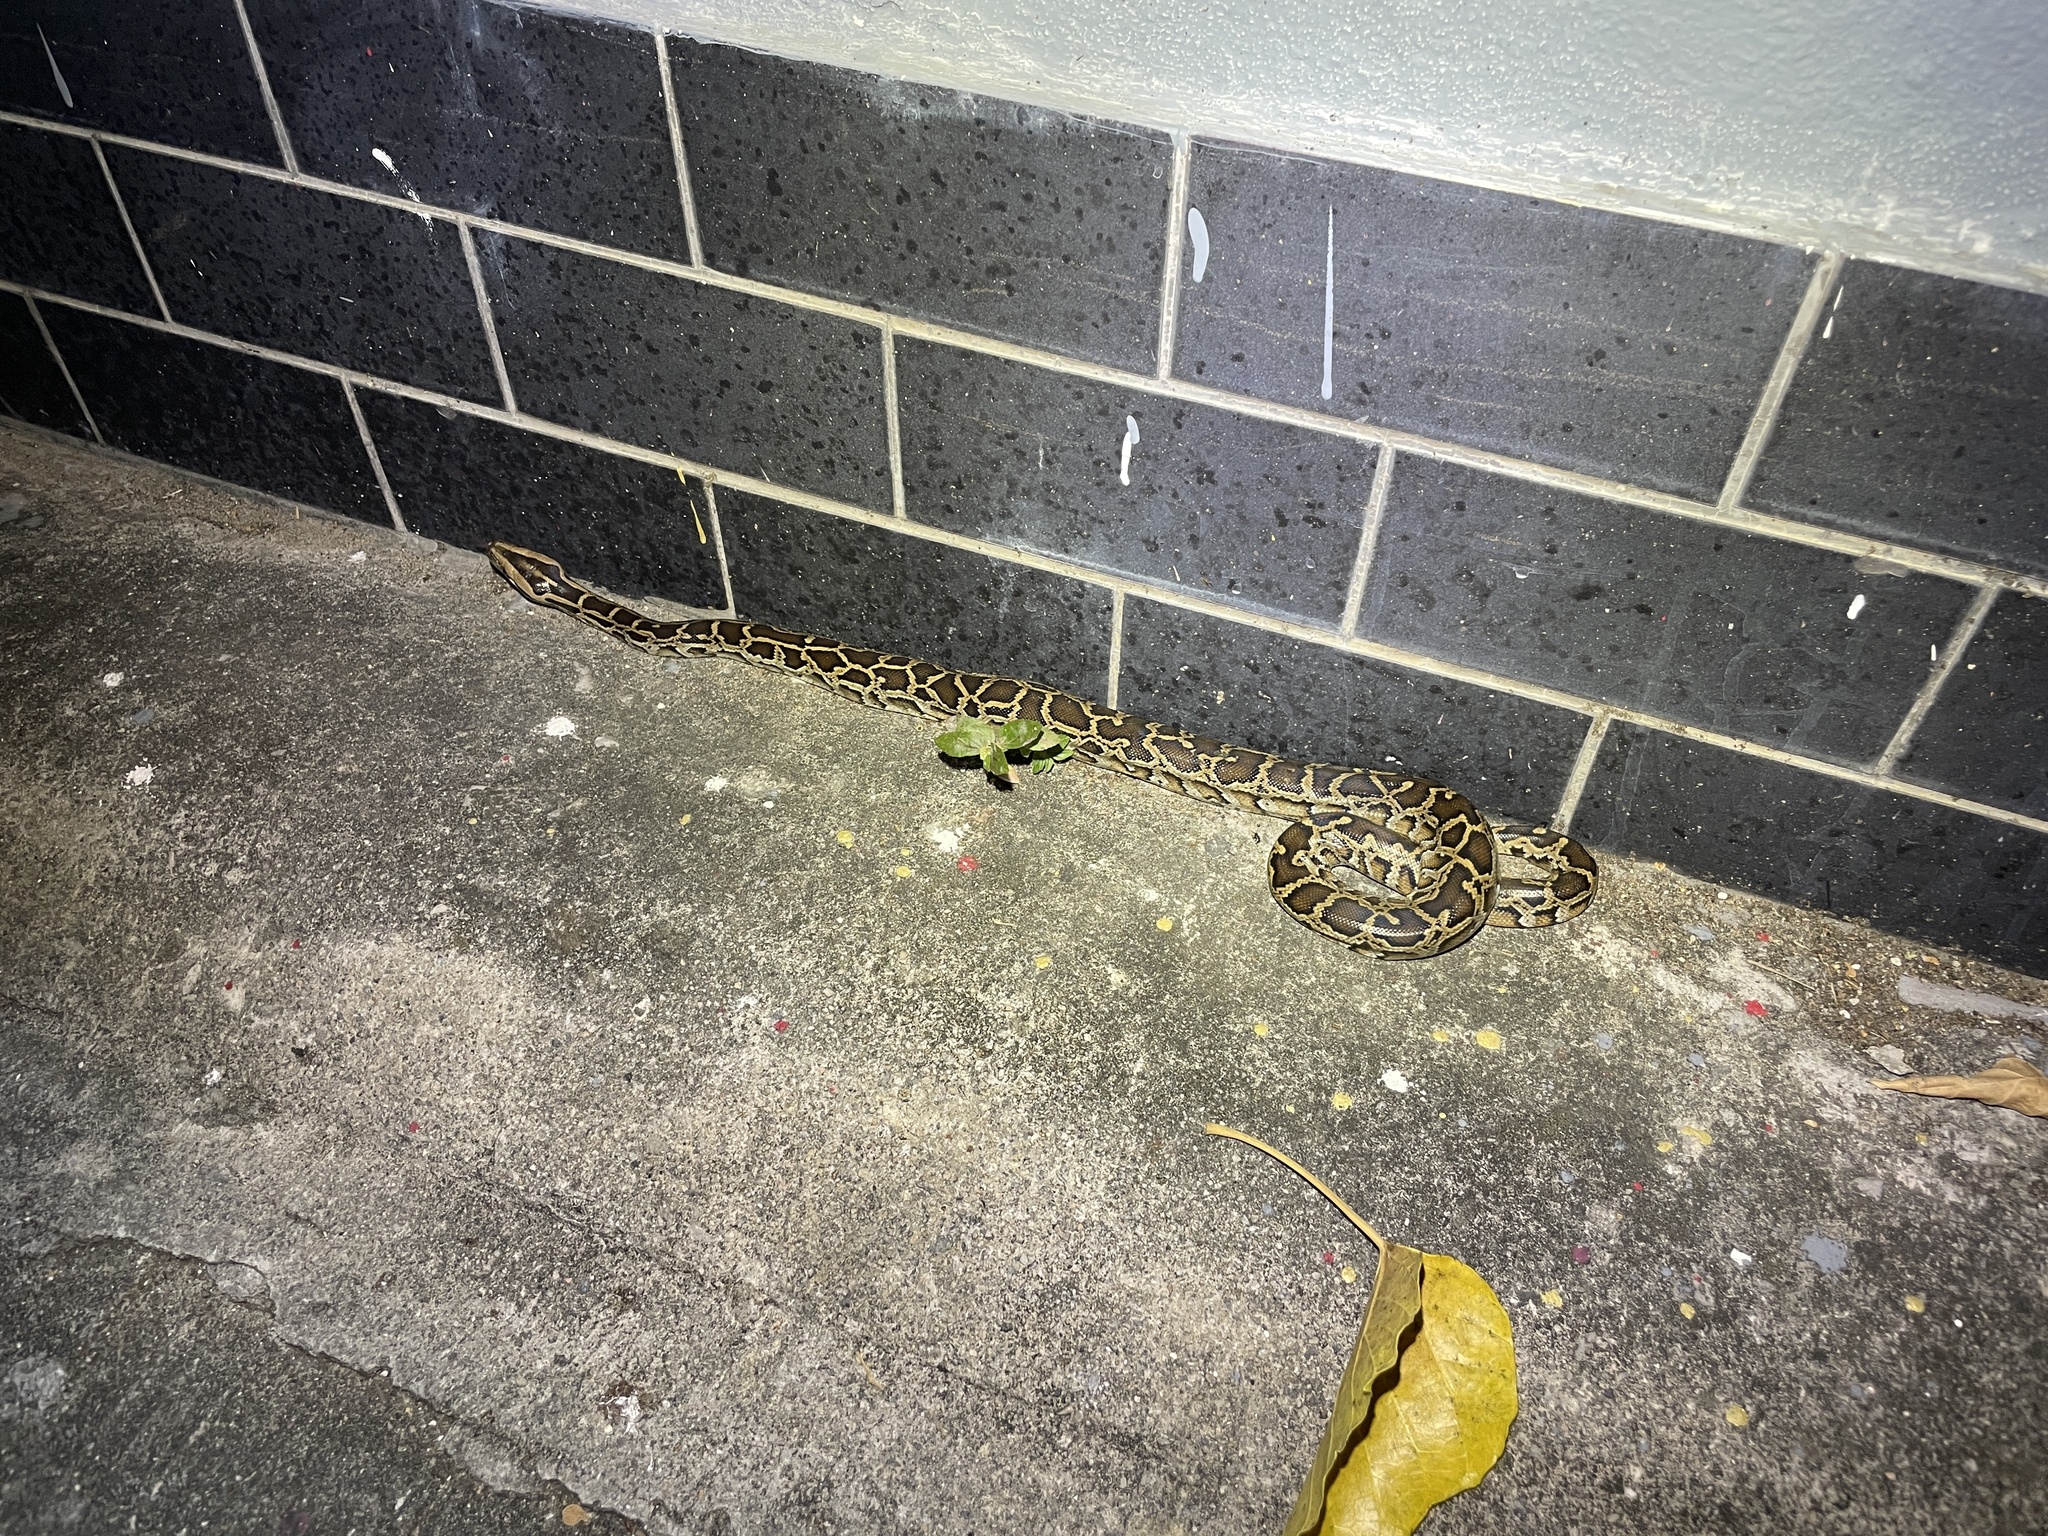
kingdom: Animalia
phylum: Chordata
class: Squamata
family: Pythonidae
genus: Python
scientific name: Python bivittatus
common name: Burmese python
